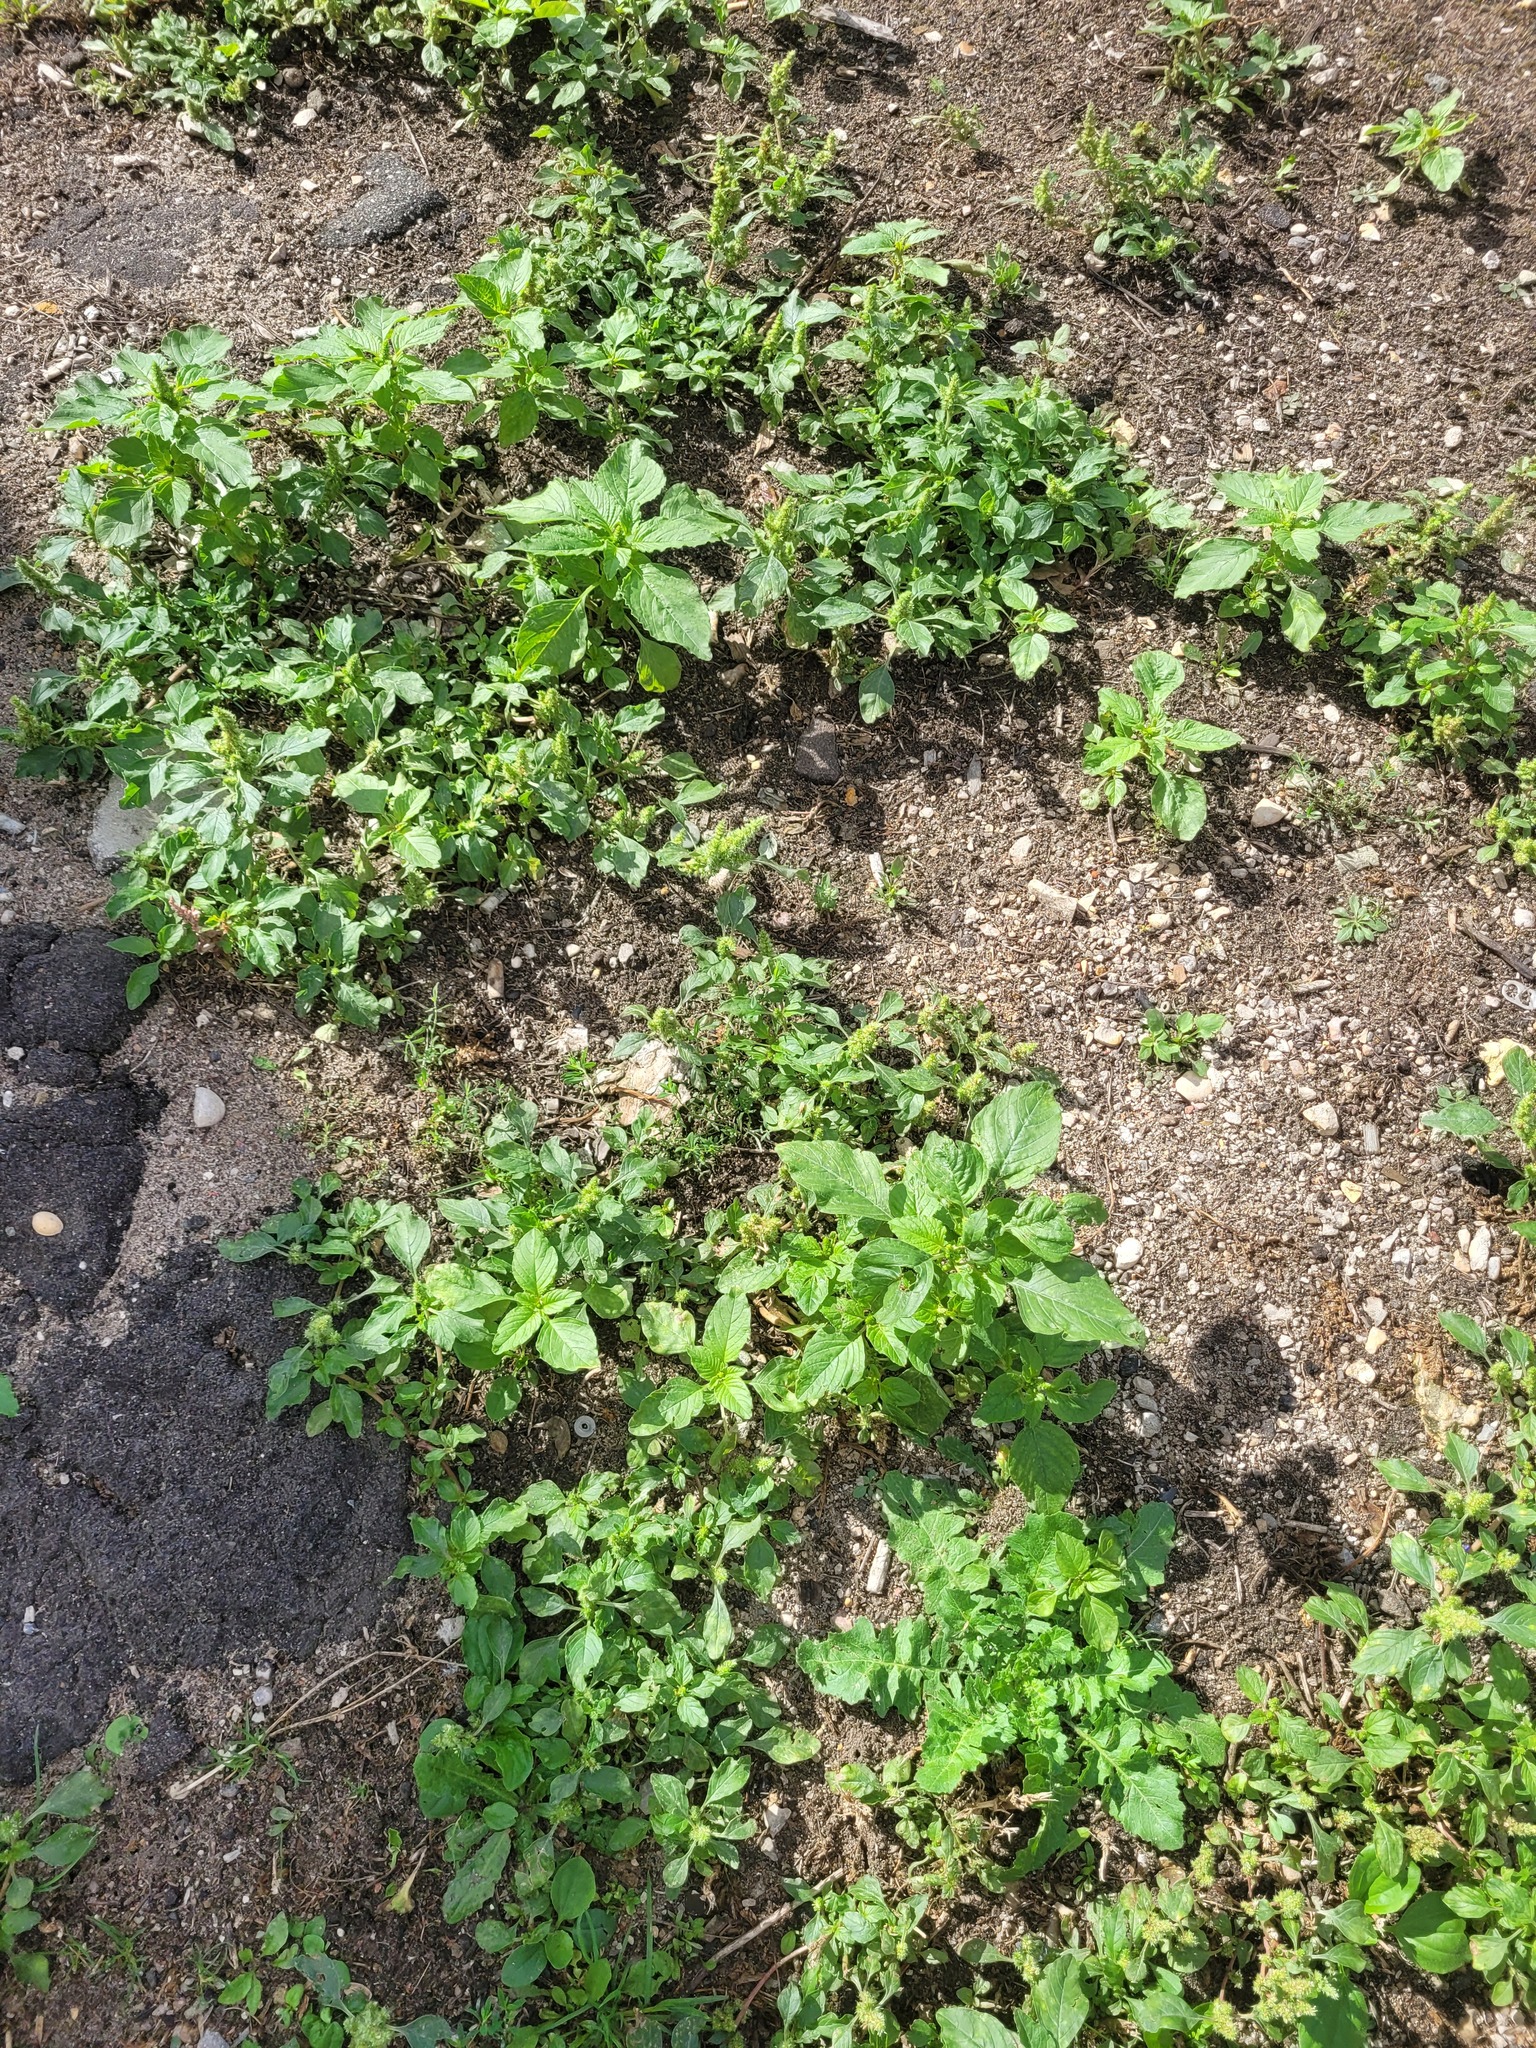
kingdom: Plantae
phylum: Tracheophyta
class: Magnoliopsida
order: Caryophyllales
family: Amaranthaceae
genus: Amaranthus
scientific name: Amaranthus retroflexus
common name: Redroot amaranth
